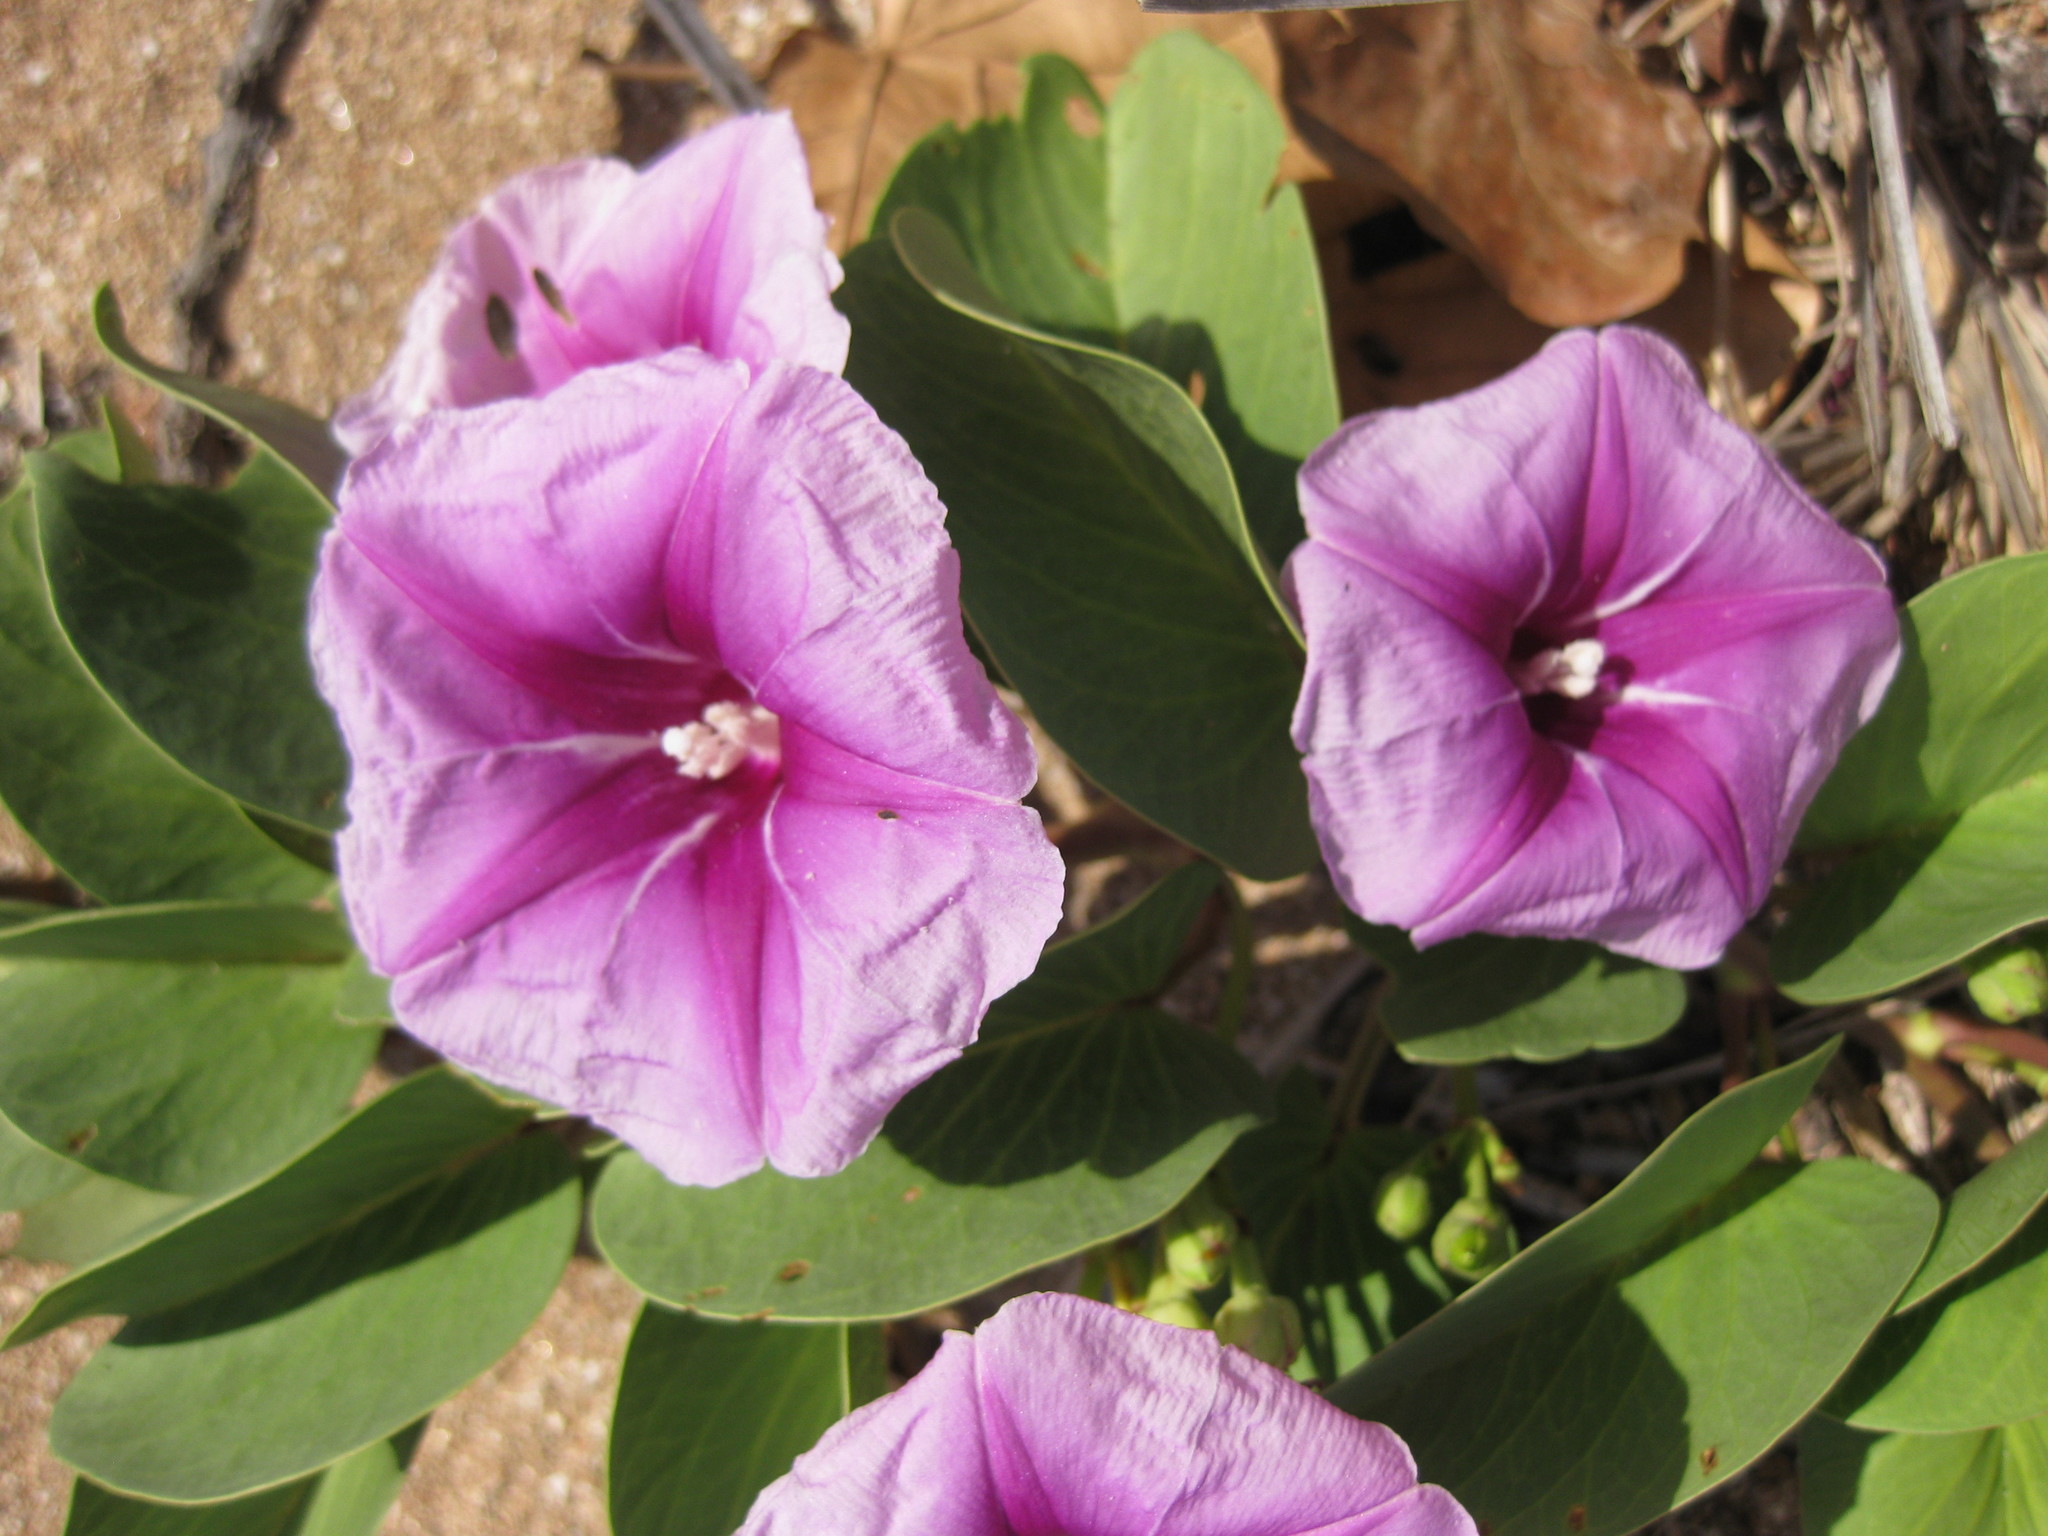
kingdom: Plantae
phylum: Tracheophyta
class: Magnoliopsida
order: Solanales
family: Convolvulaceae
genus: Ipomoea
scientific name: Ipomoea pes-caprae
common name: Beach morning glory
